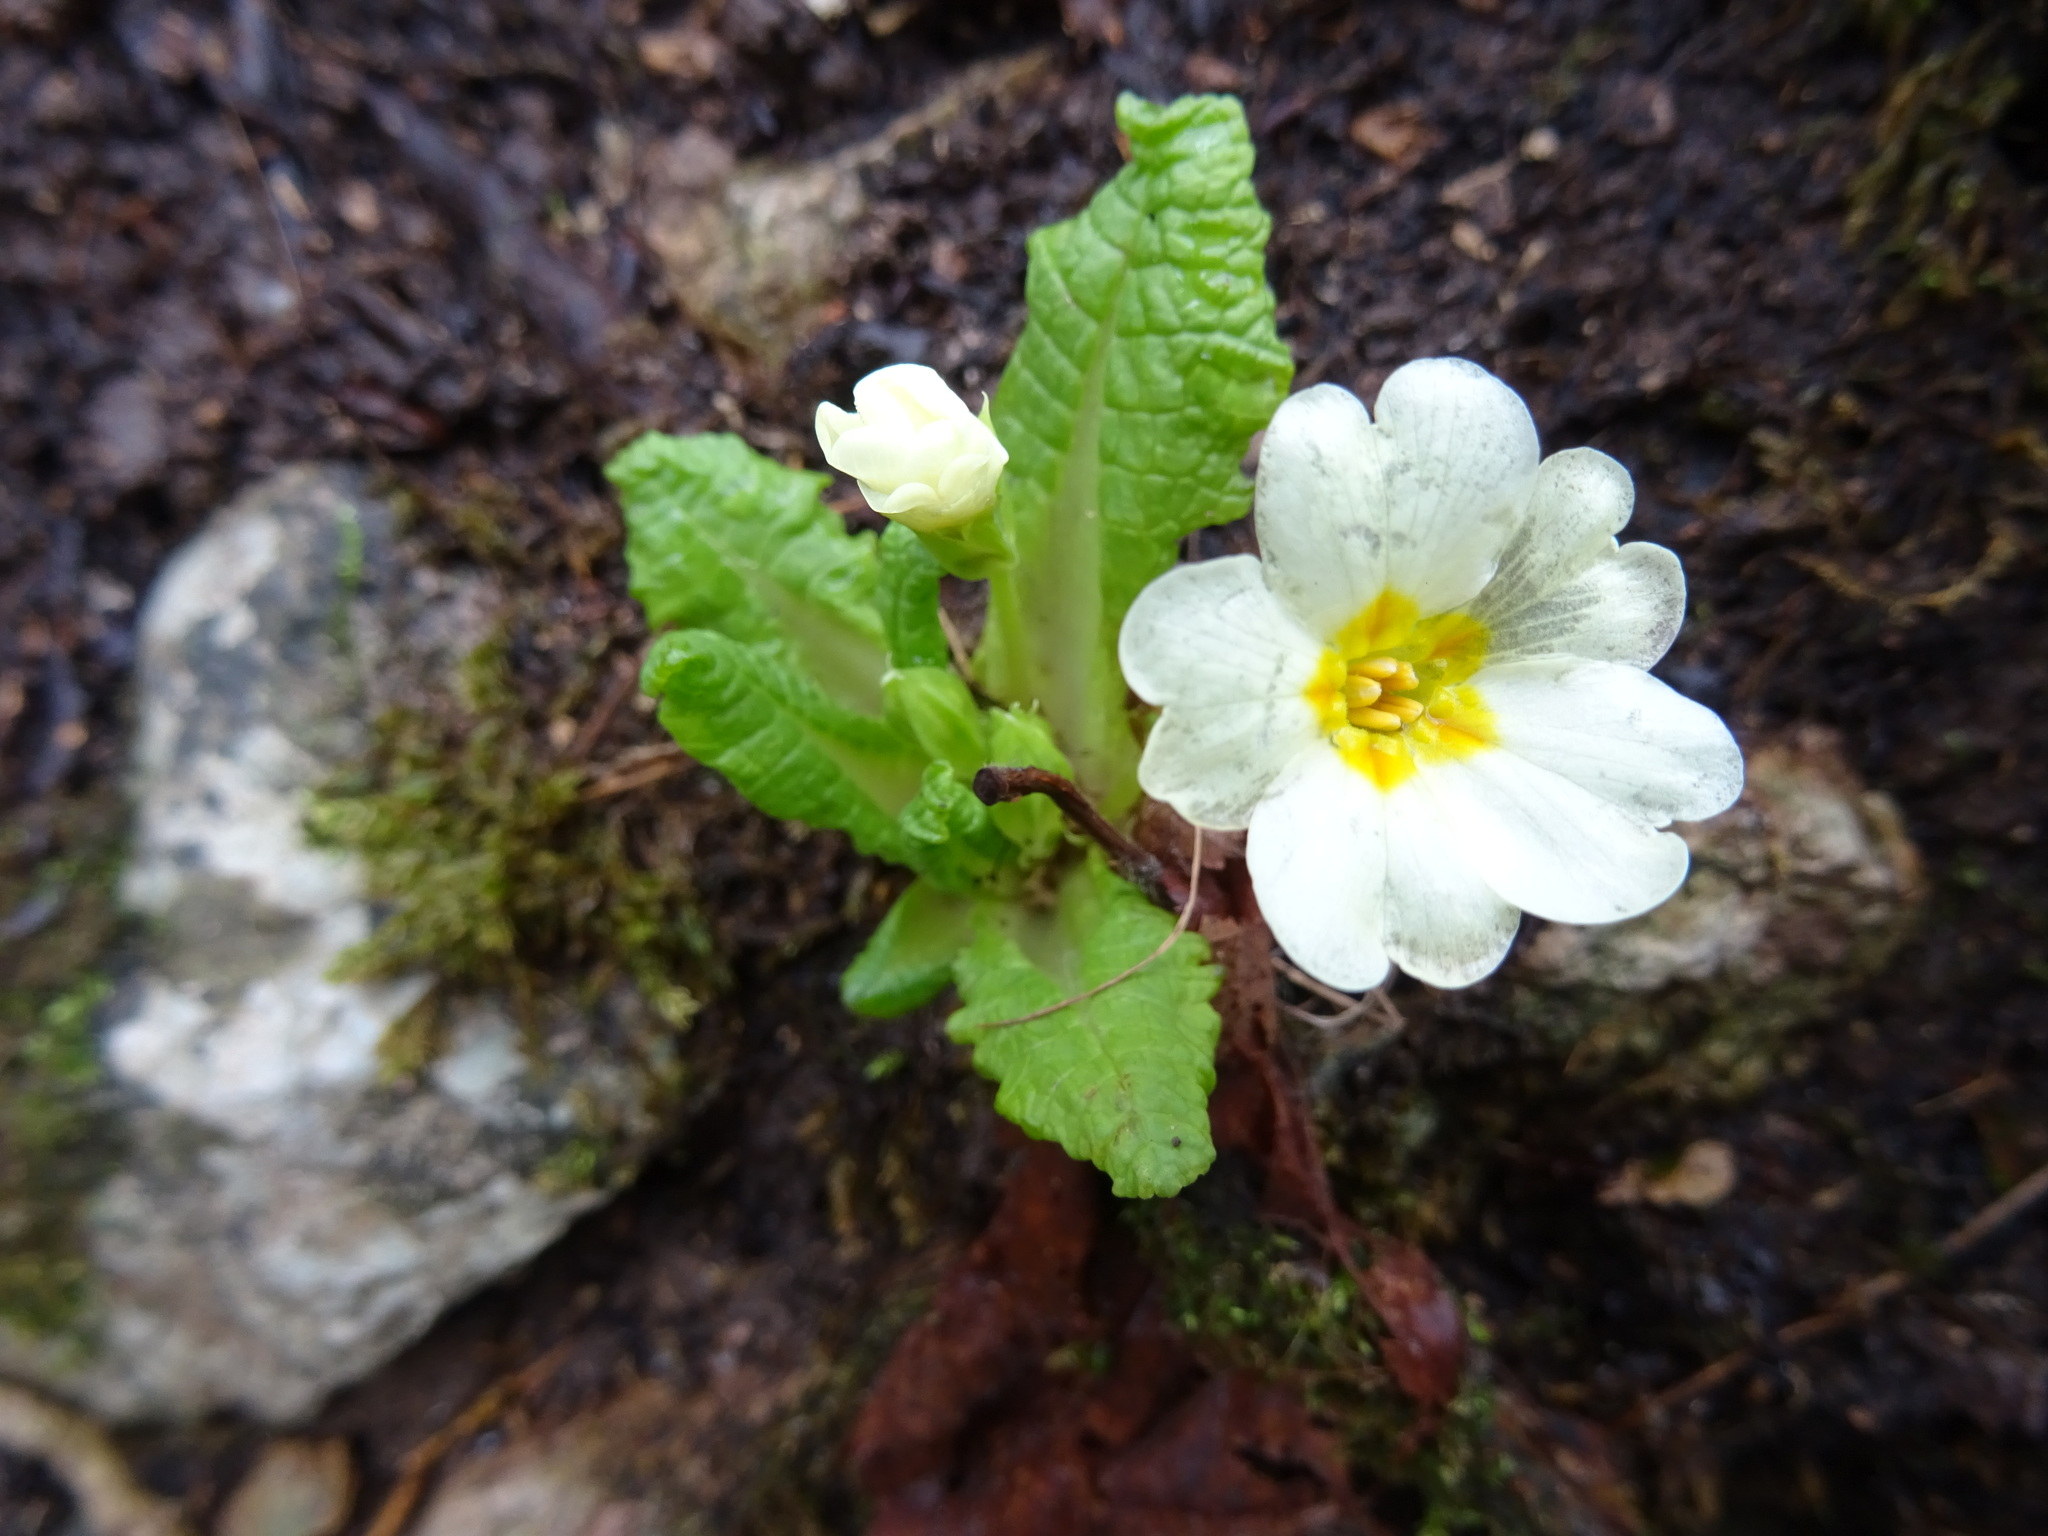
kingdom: Plantae
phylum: Tracheophyta
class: Magnoliopsida
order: Ericales
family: Primulaceae
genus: Primula
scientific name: Primula vulgaris
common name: Primrose
